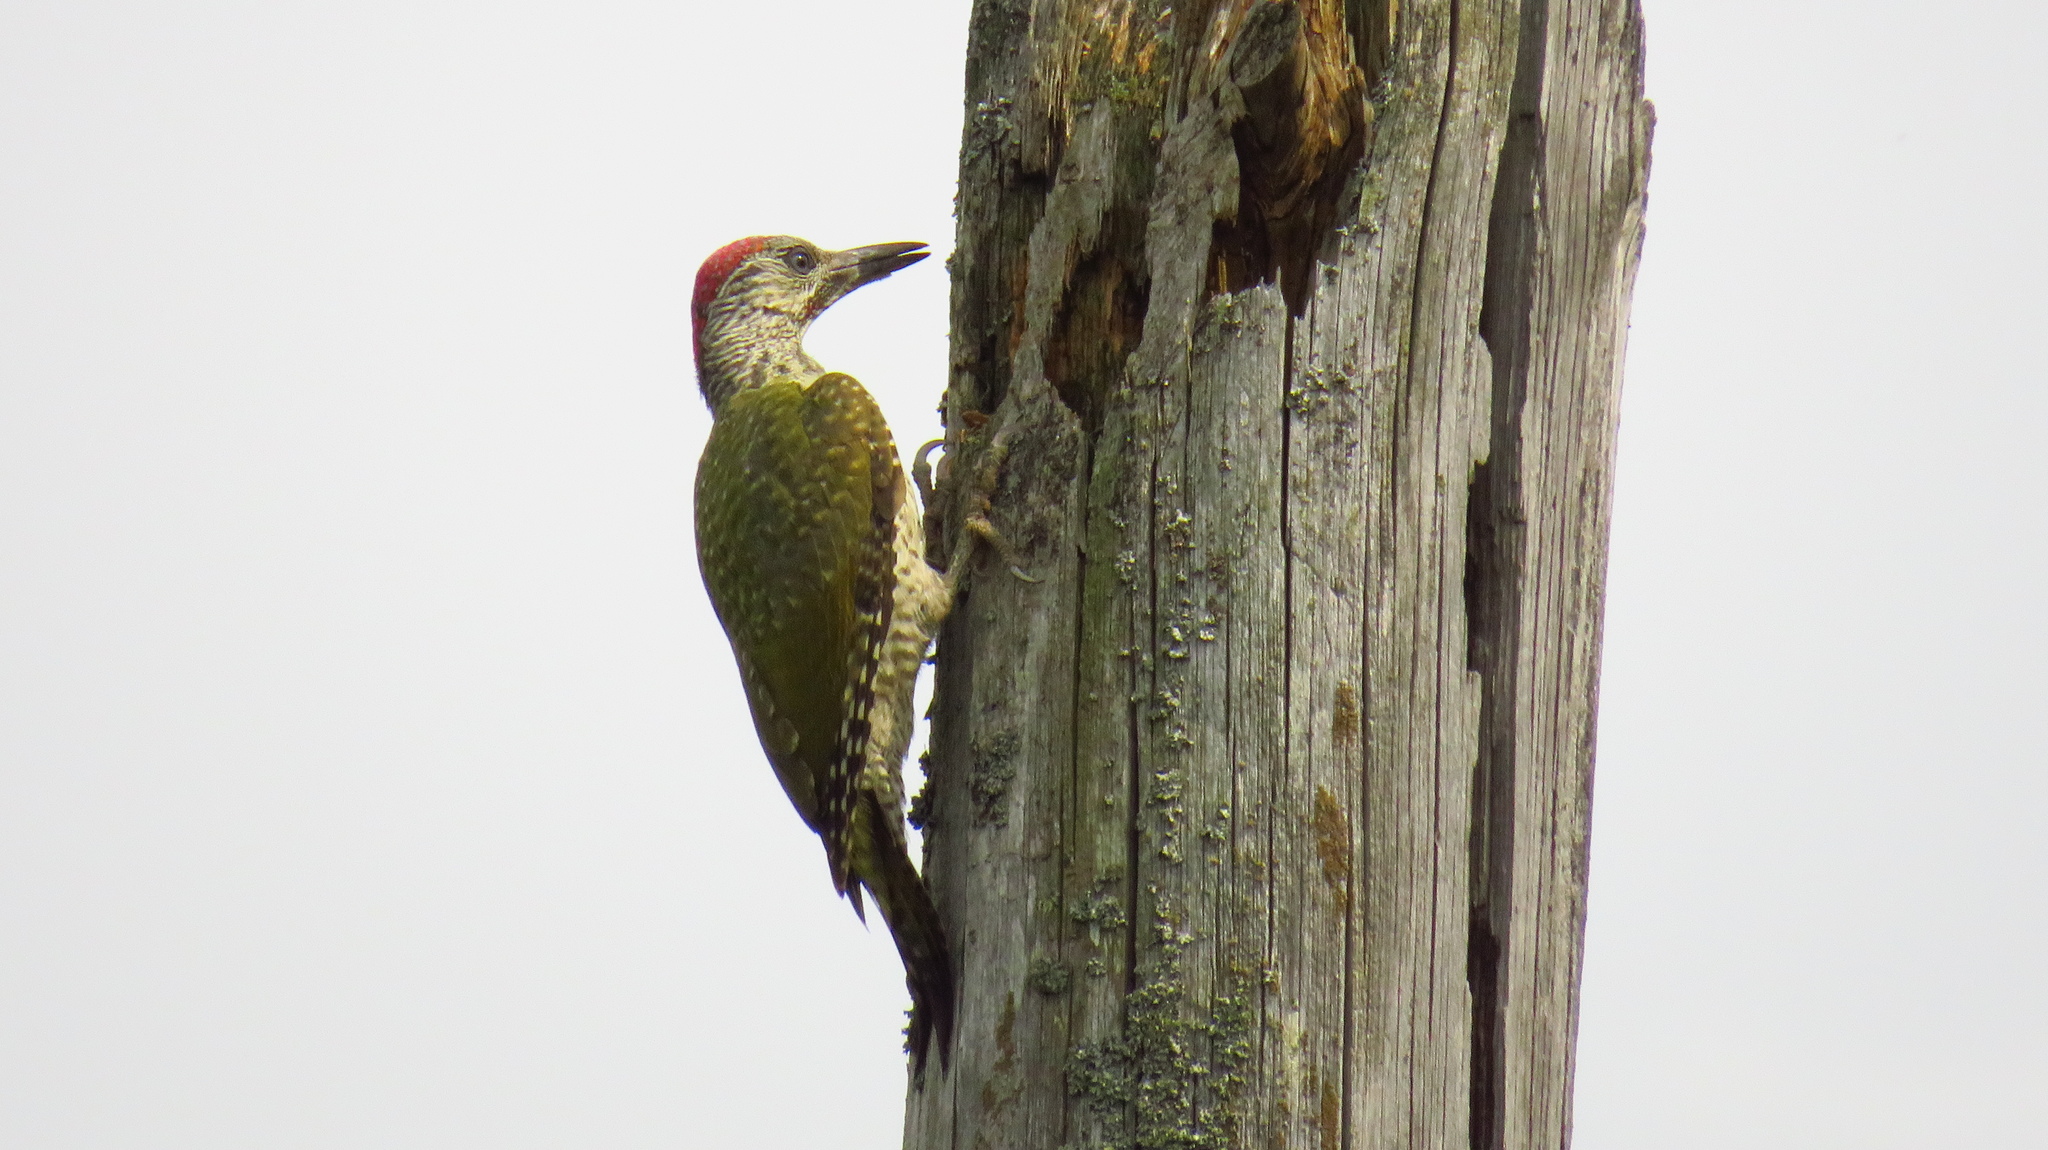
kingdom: Animalia
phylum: Chordata
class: Aves
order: Piciformes
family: Picidae
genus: Picus
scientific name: Picus viridis
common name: European green woodpecker
